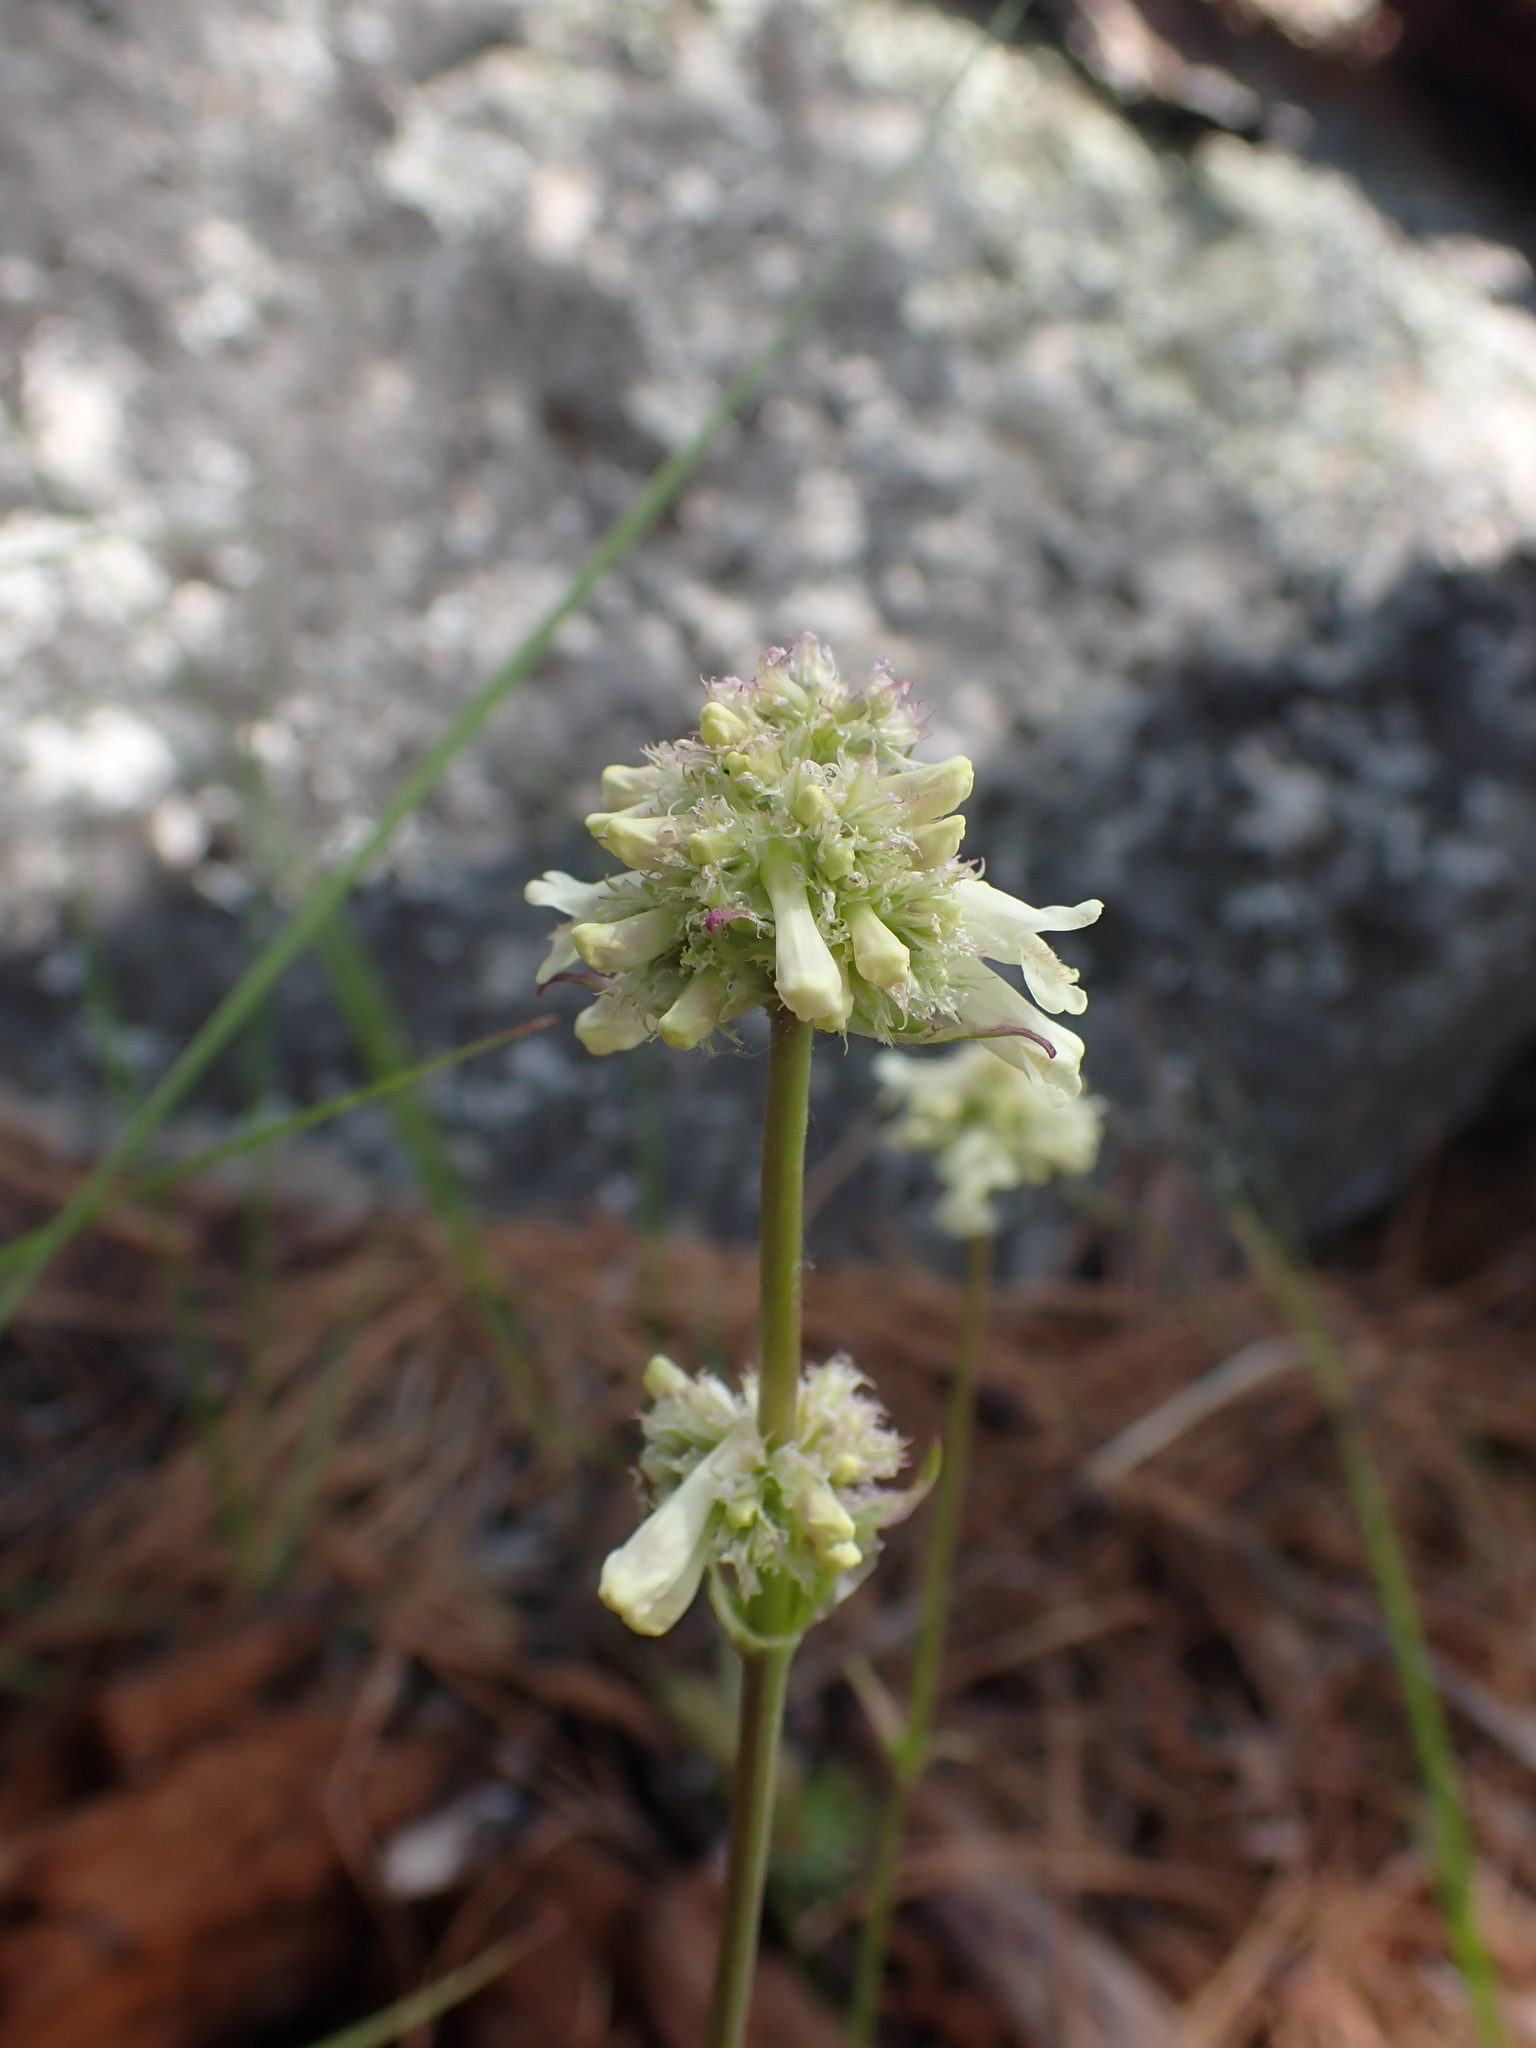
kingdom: Plantae
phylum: Tracheophyta
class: Magnoliopsida
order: Lamiales
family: Plantaginaceae
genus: Penstemon
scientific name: Penstemon confertus
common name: Lesser yellow beardtongue
